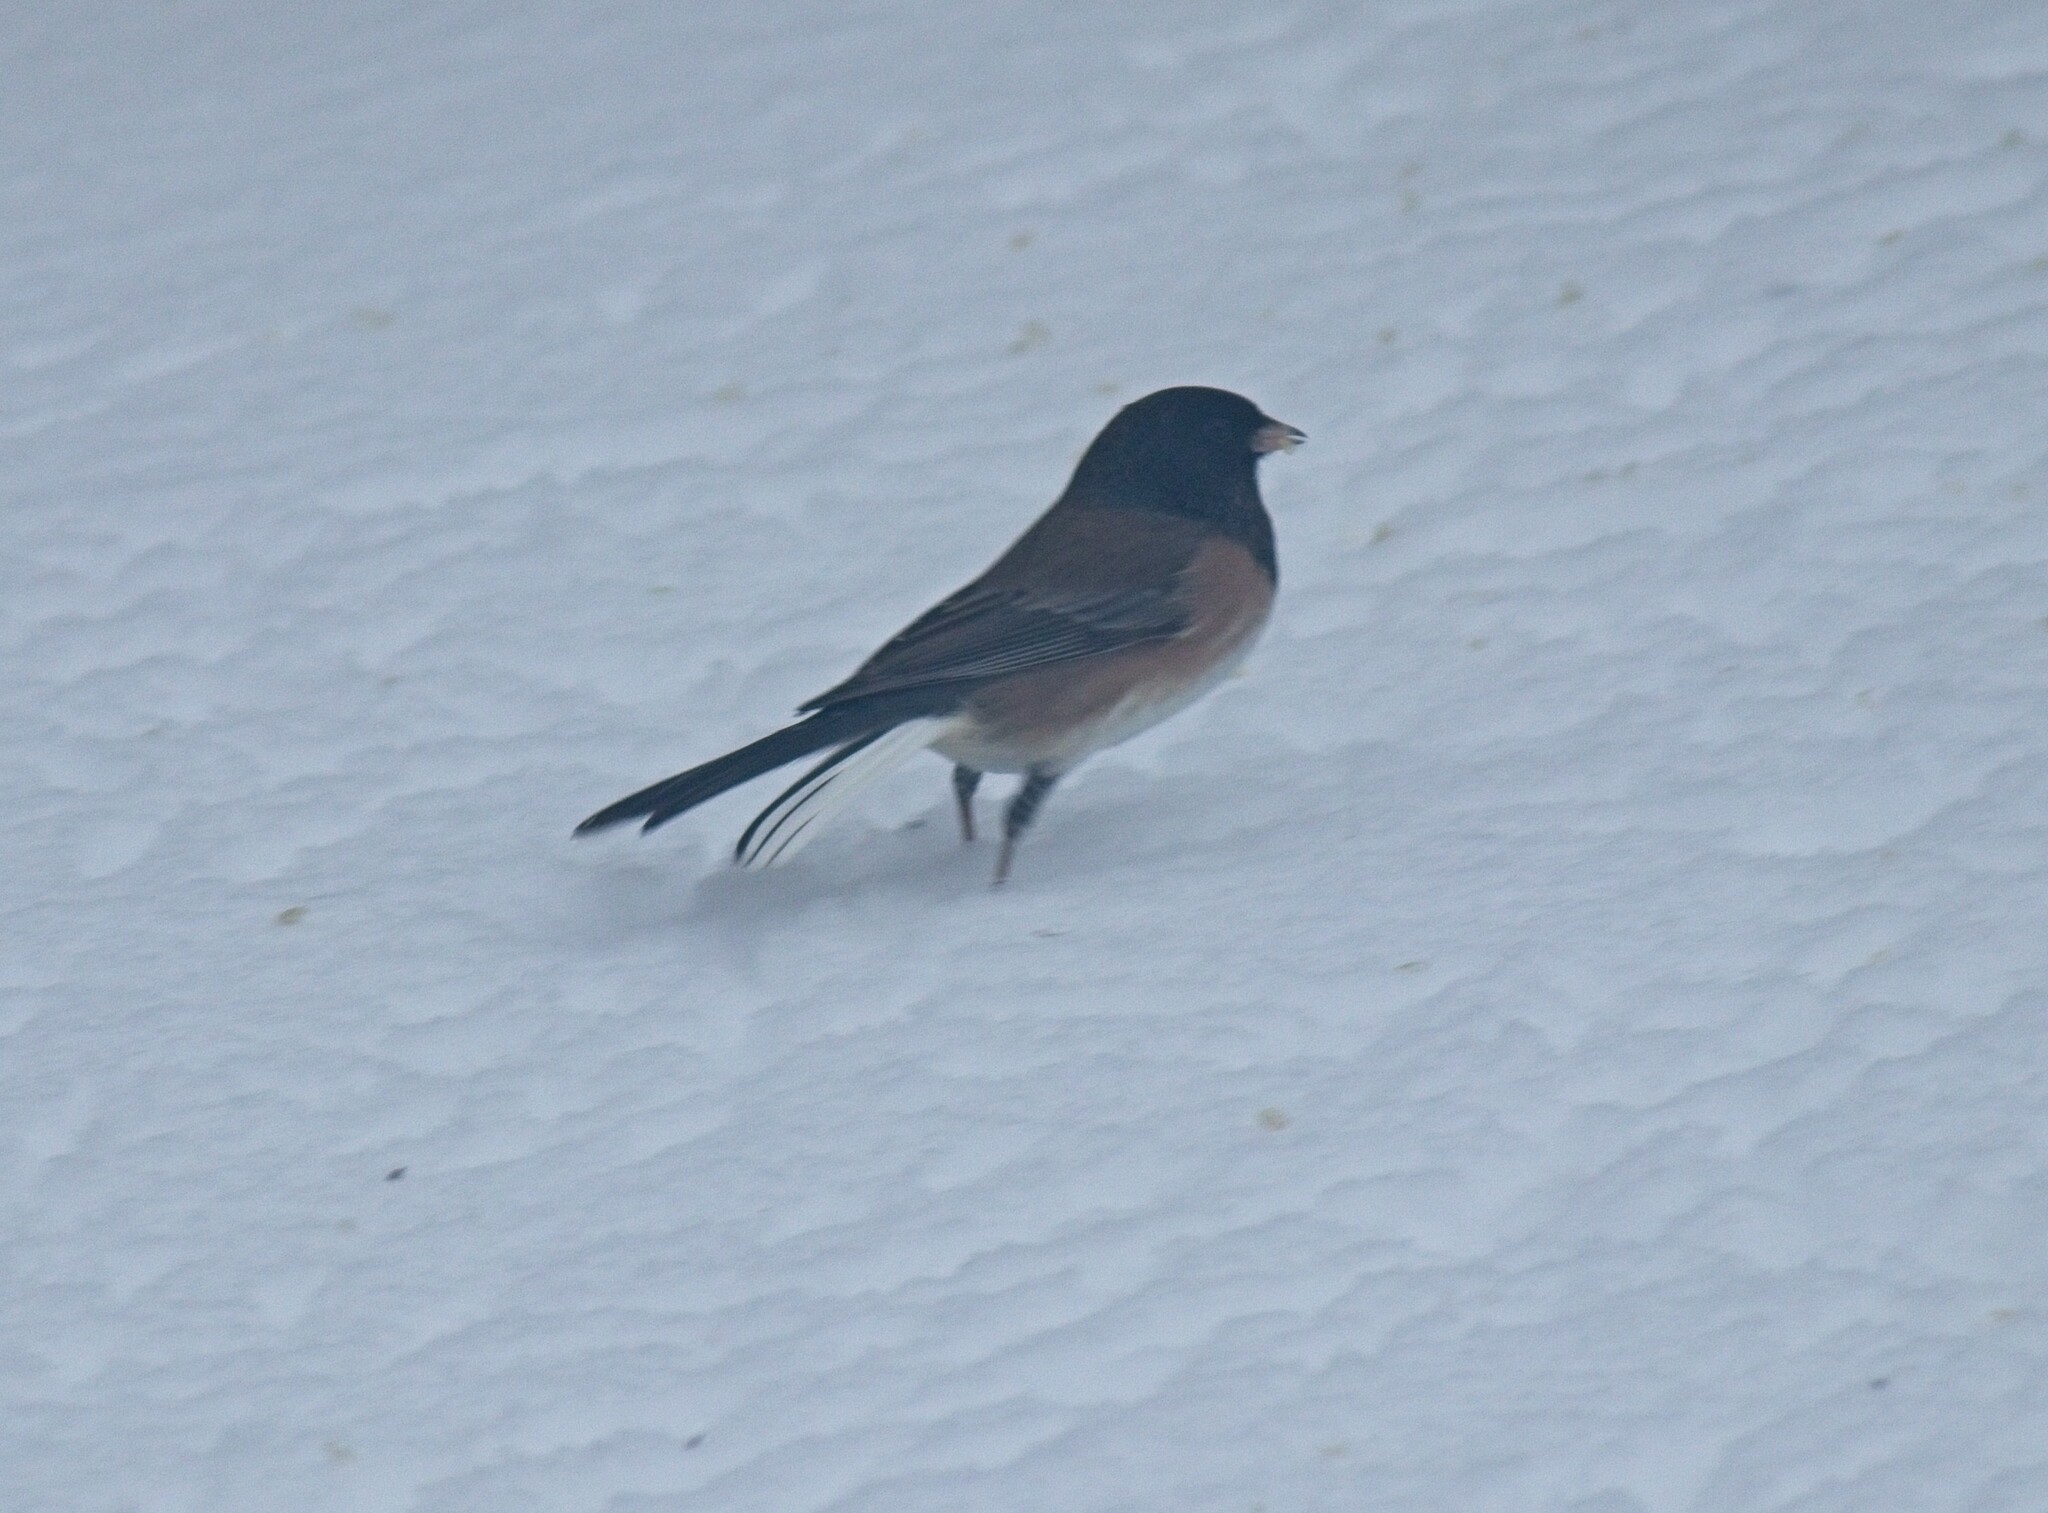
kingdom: Animalia
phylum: Chordata
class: Aves
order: Passeriformes
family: Passerellidae
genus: Junco
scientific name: Junco hyemalis
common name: Dark-eyed junco
